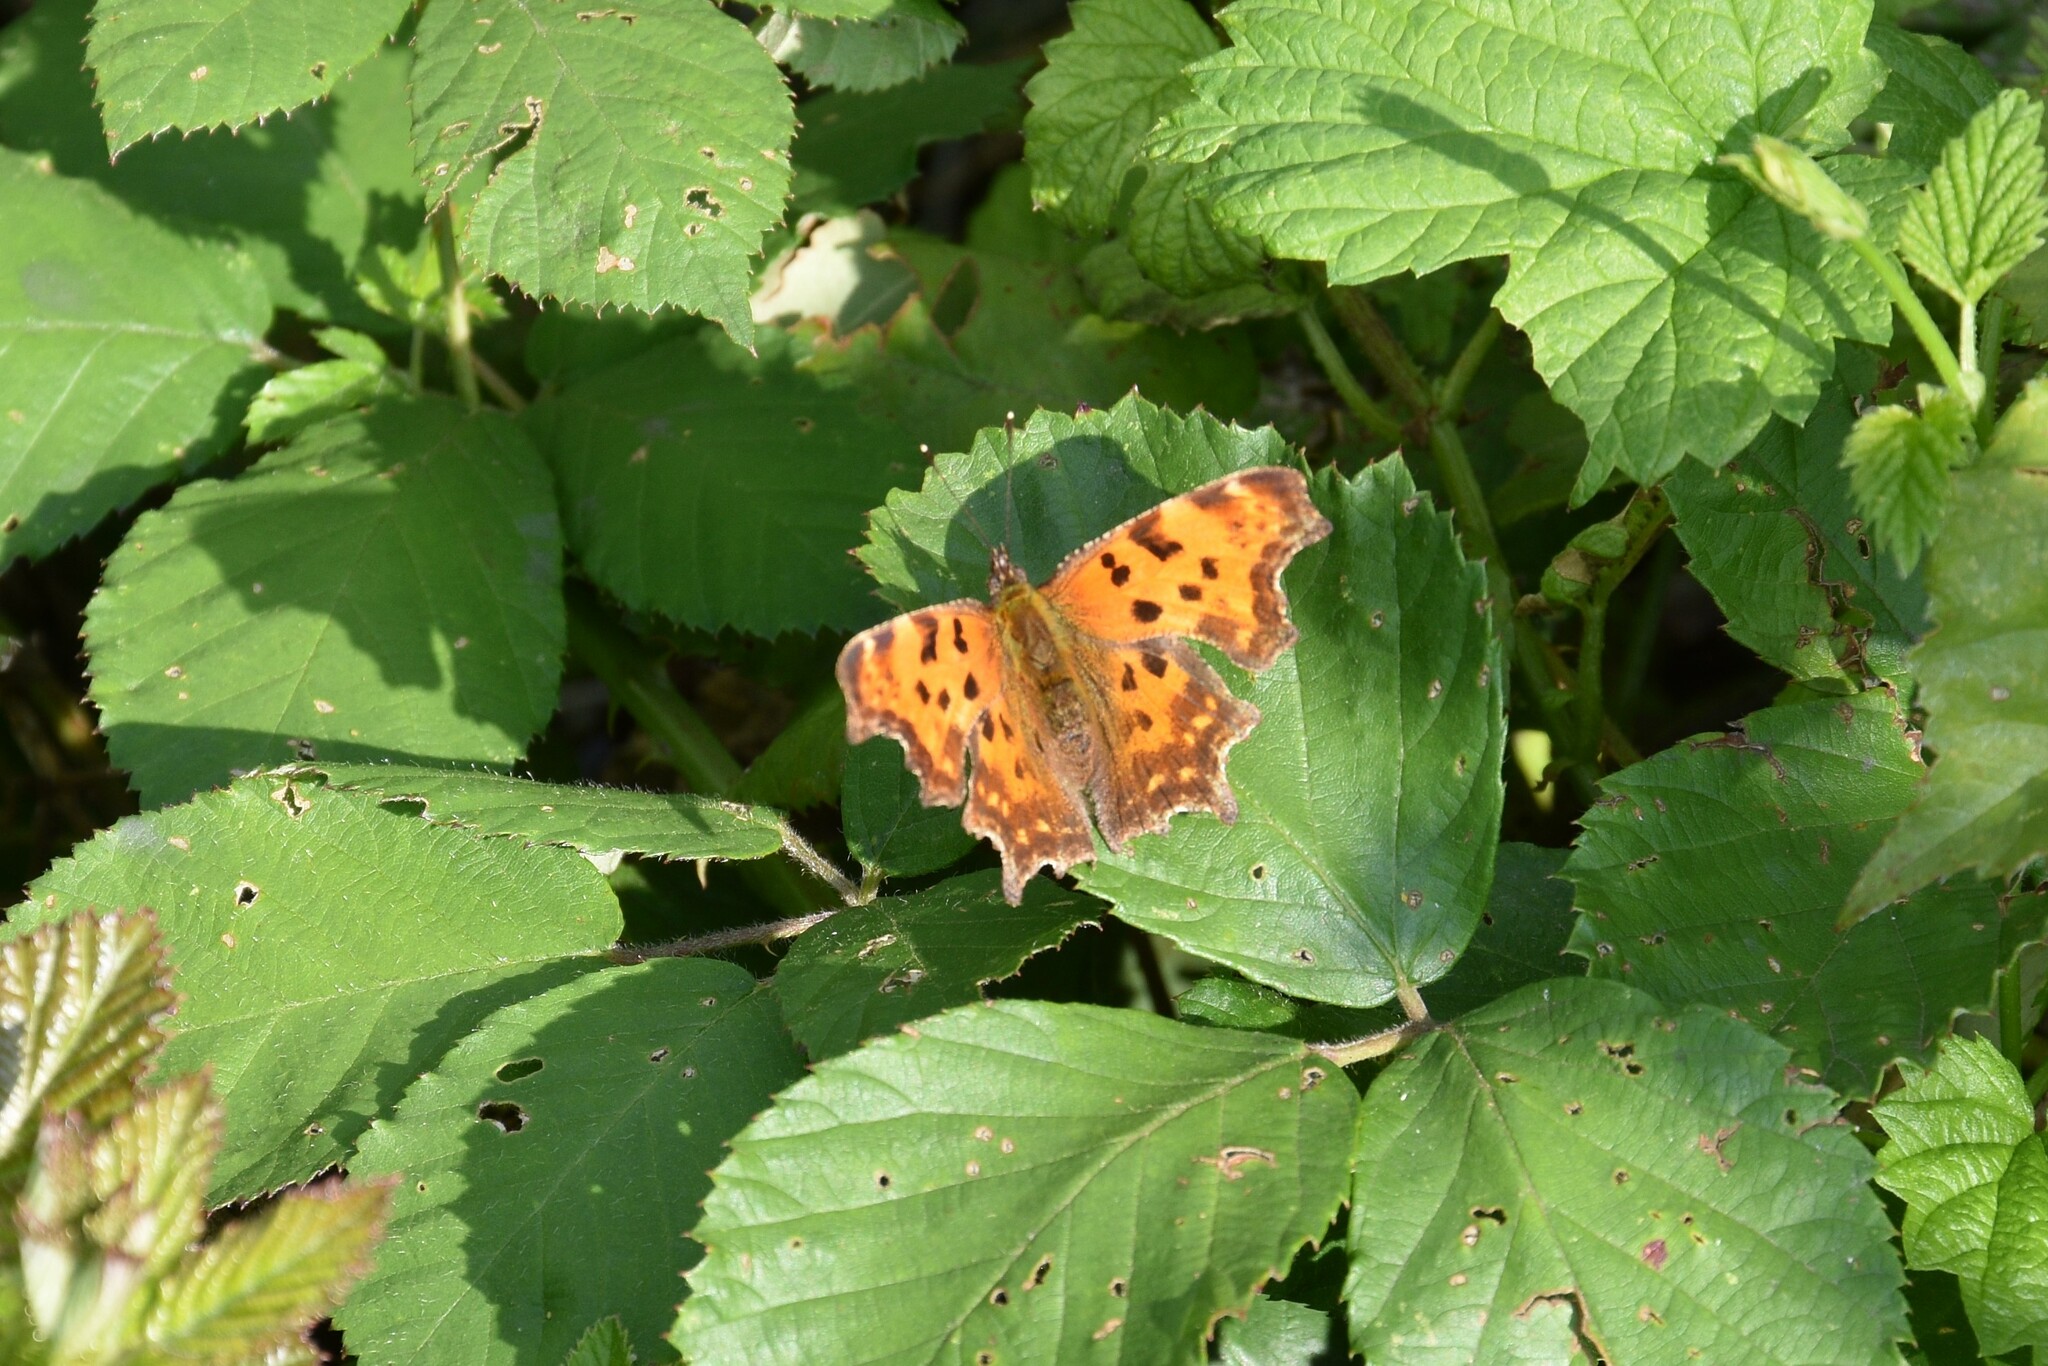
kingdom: Animalia
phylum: Arthropoda
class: Insecta
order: Lepidoptera
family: Nymphalidae
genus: Polygonia
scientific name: Polygonia c-album
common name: Comma
